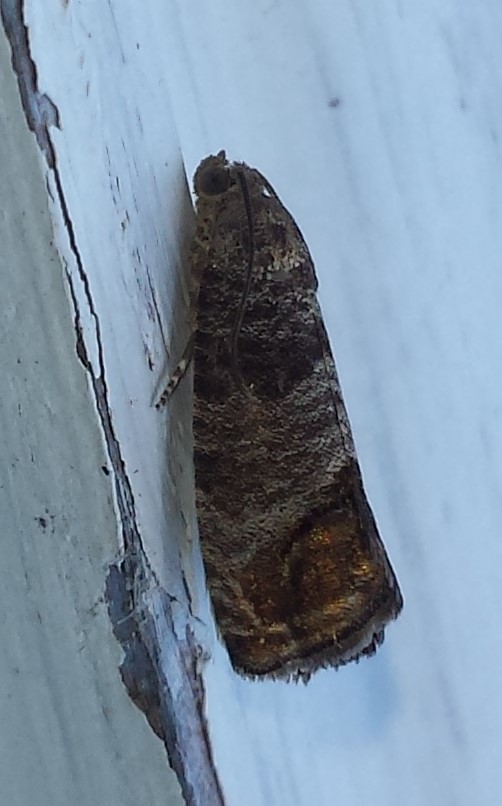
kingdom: Animalia
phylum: Arthropoda
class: Insecta
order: Lepidoptera
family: Tortricidae
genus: Cydia
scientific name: Cydia pomonella
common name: Codling moth
